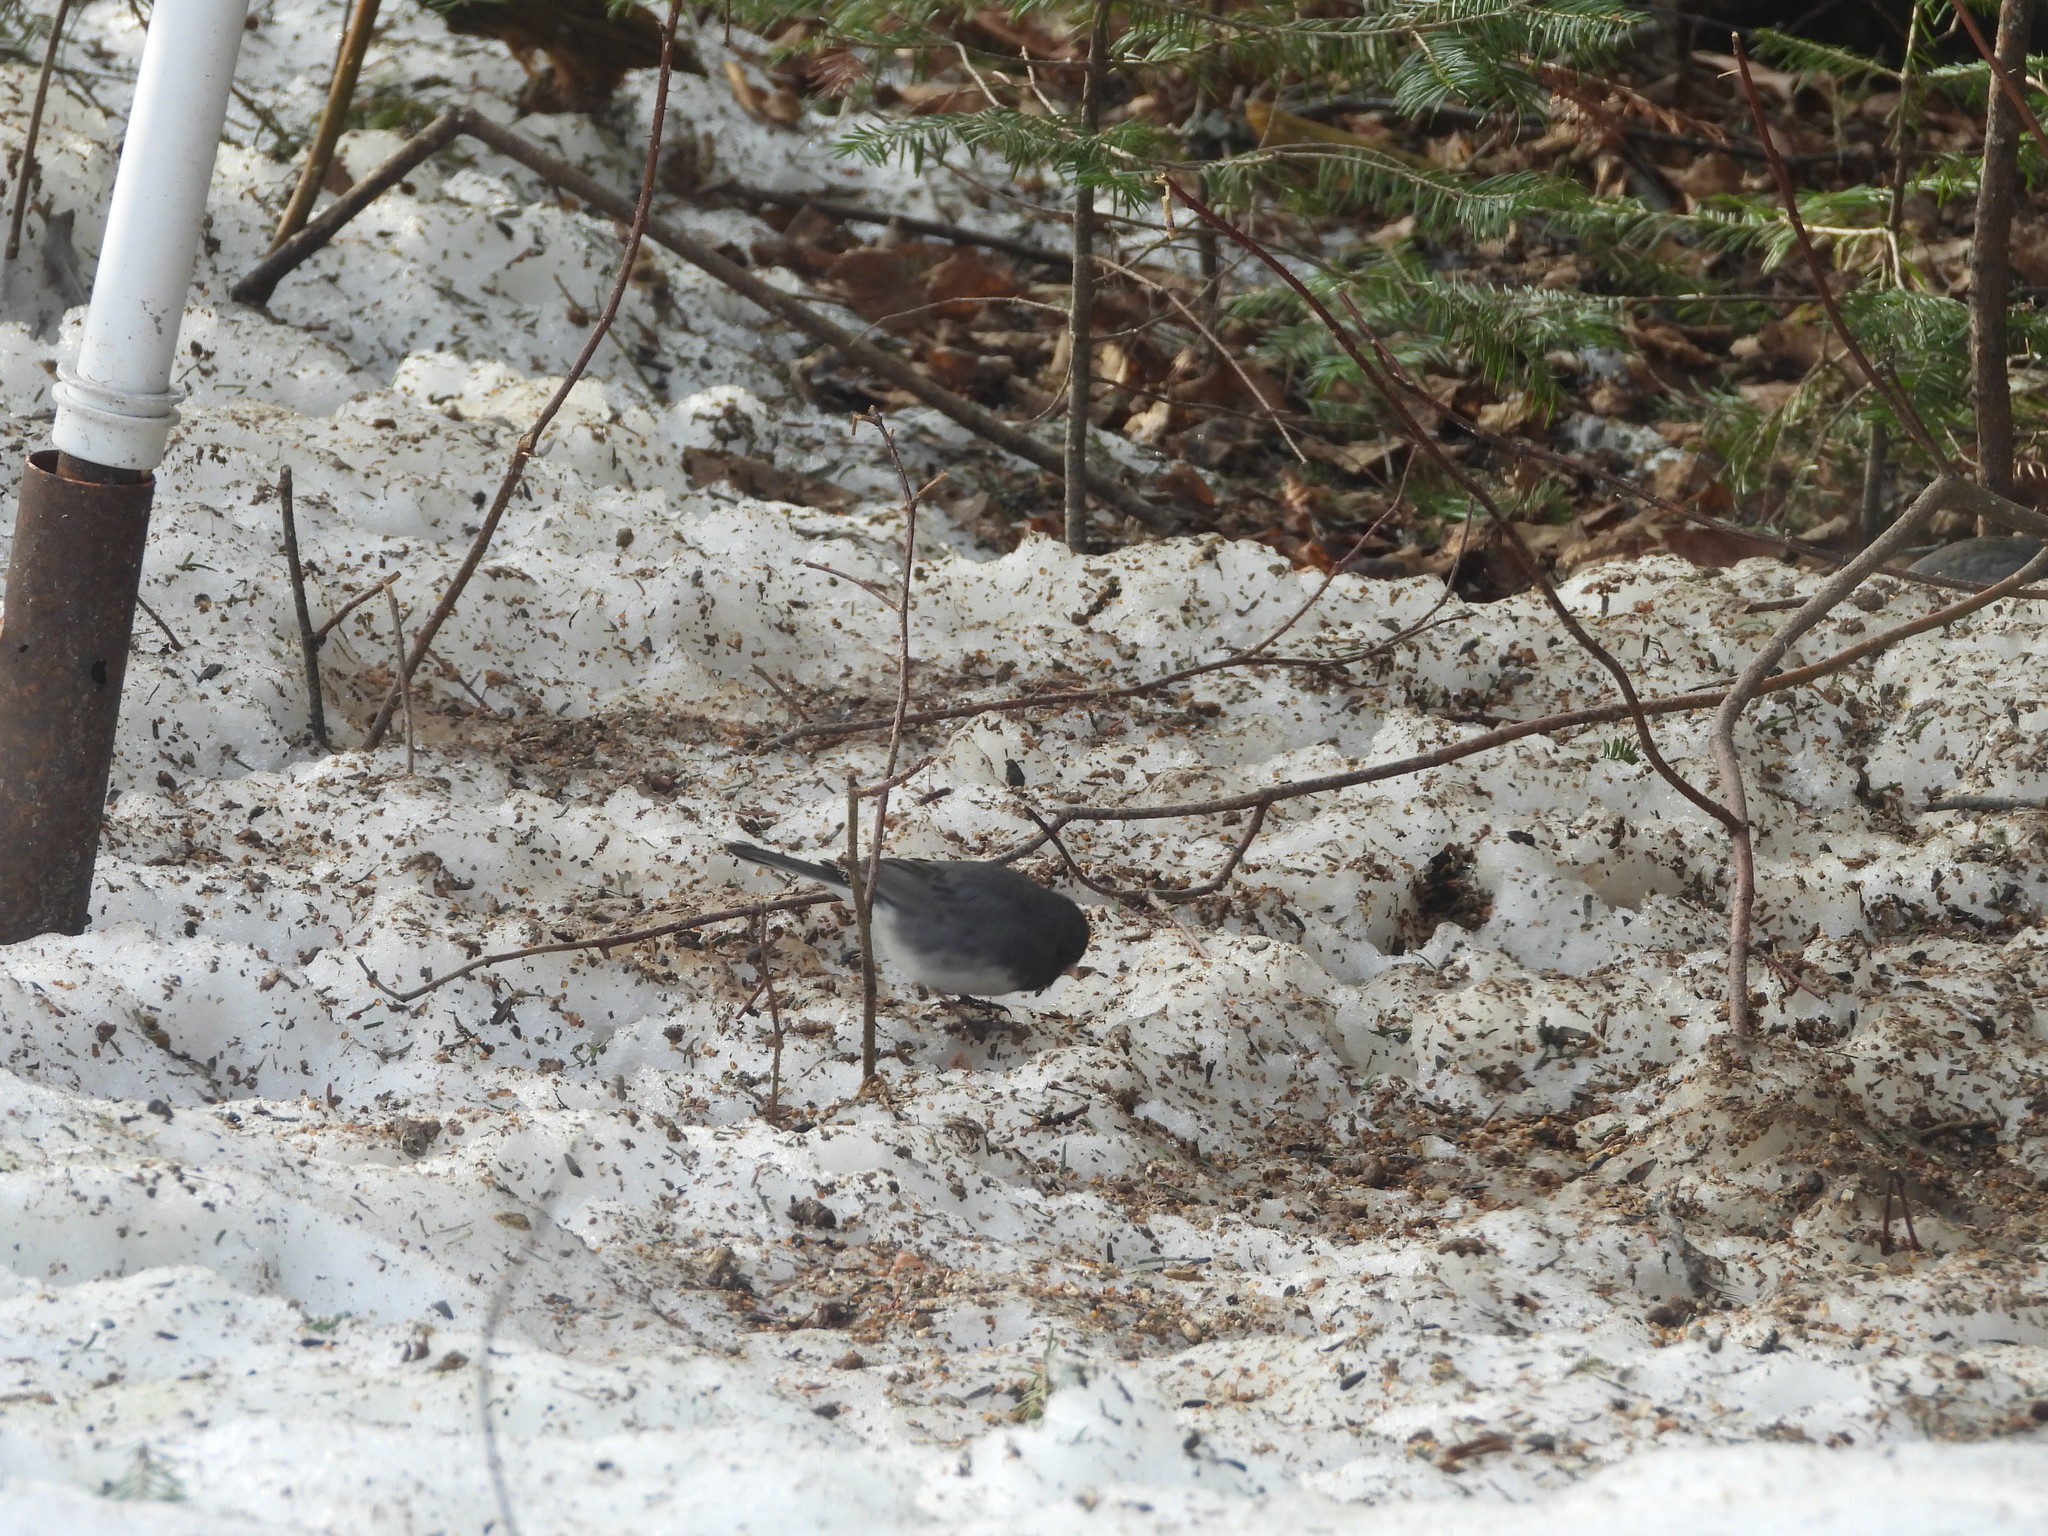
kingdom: Animalia
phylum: Chordata
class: Aves
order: Passeriformes
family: Passerellidae
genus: Junco
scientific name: Junco hyemalis
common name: Dark-eyed junco
